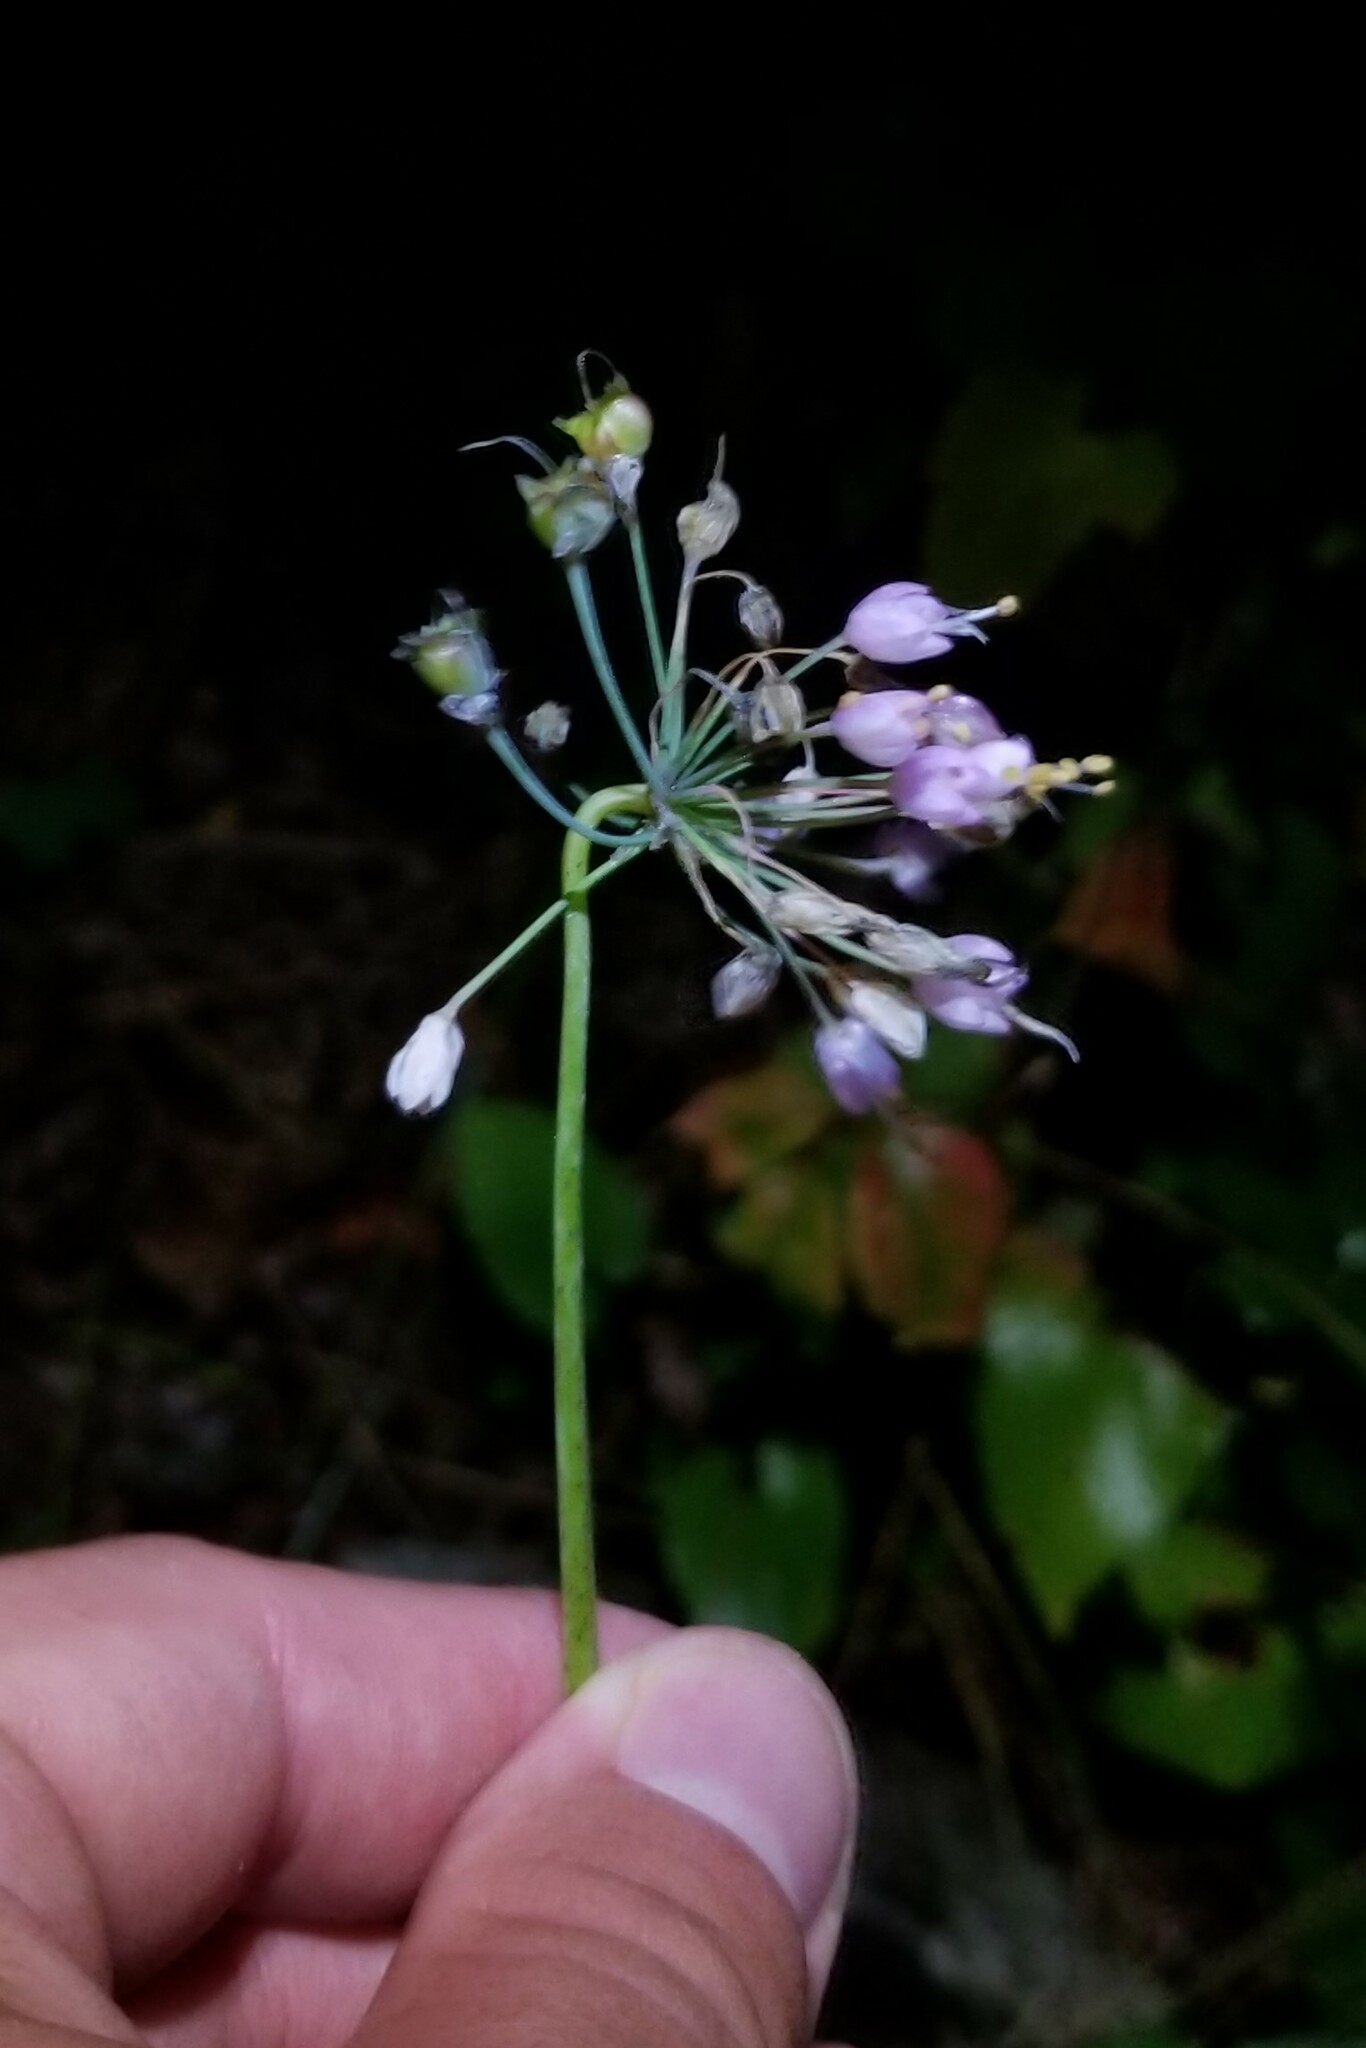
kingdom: Plantae
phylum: Tracheophyta
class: Liliopsida
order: Asparagales
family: Amaryllidaceae
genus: Allium
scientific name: Allium cernuum
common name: Nodding onion
